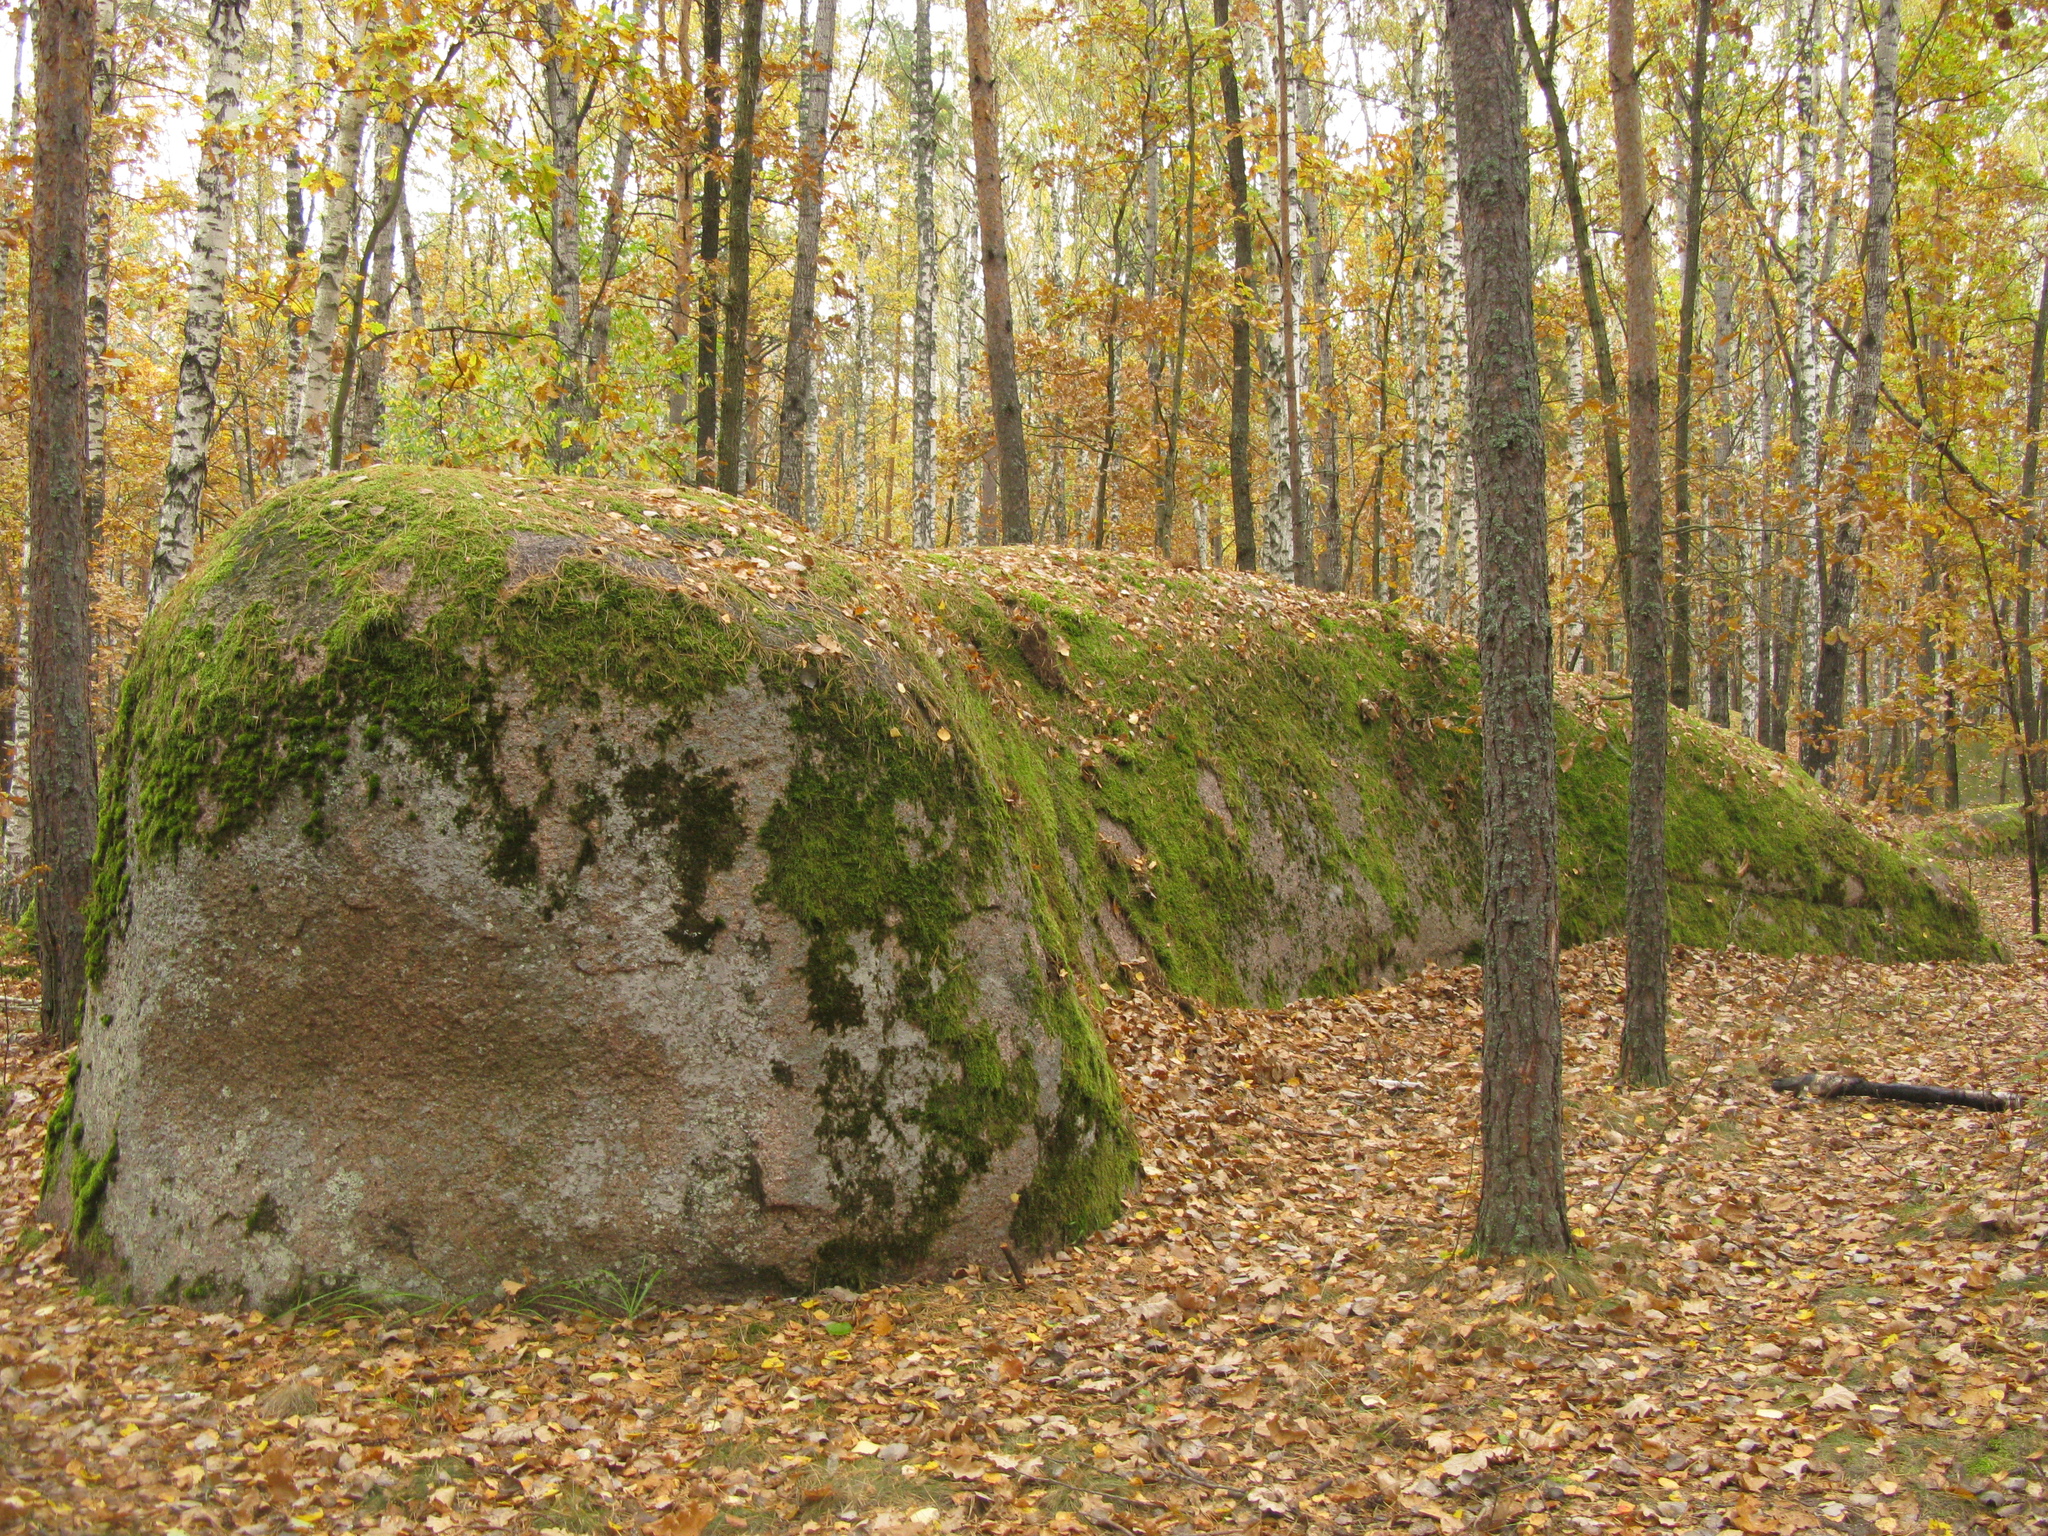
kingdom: Plantae
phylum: Tracheophyta
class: Magnoliopsida
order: Fagales
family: Fagaceae
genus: Quercus
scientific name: Quercus robur
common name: Pedunculate oak
